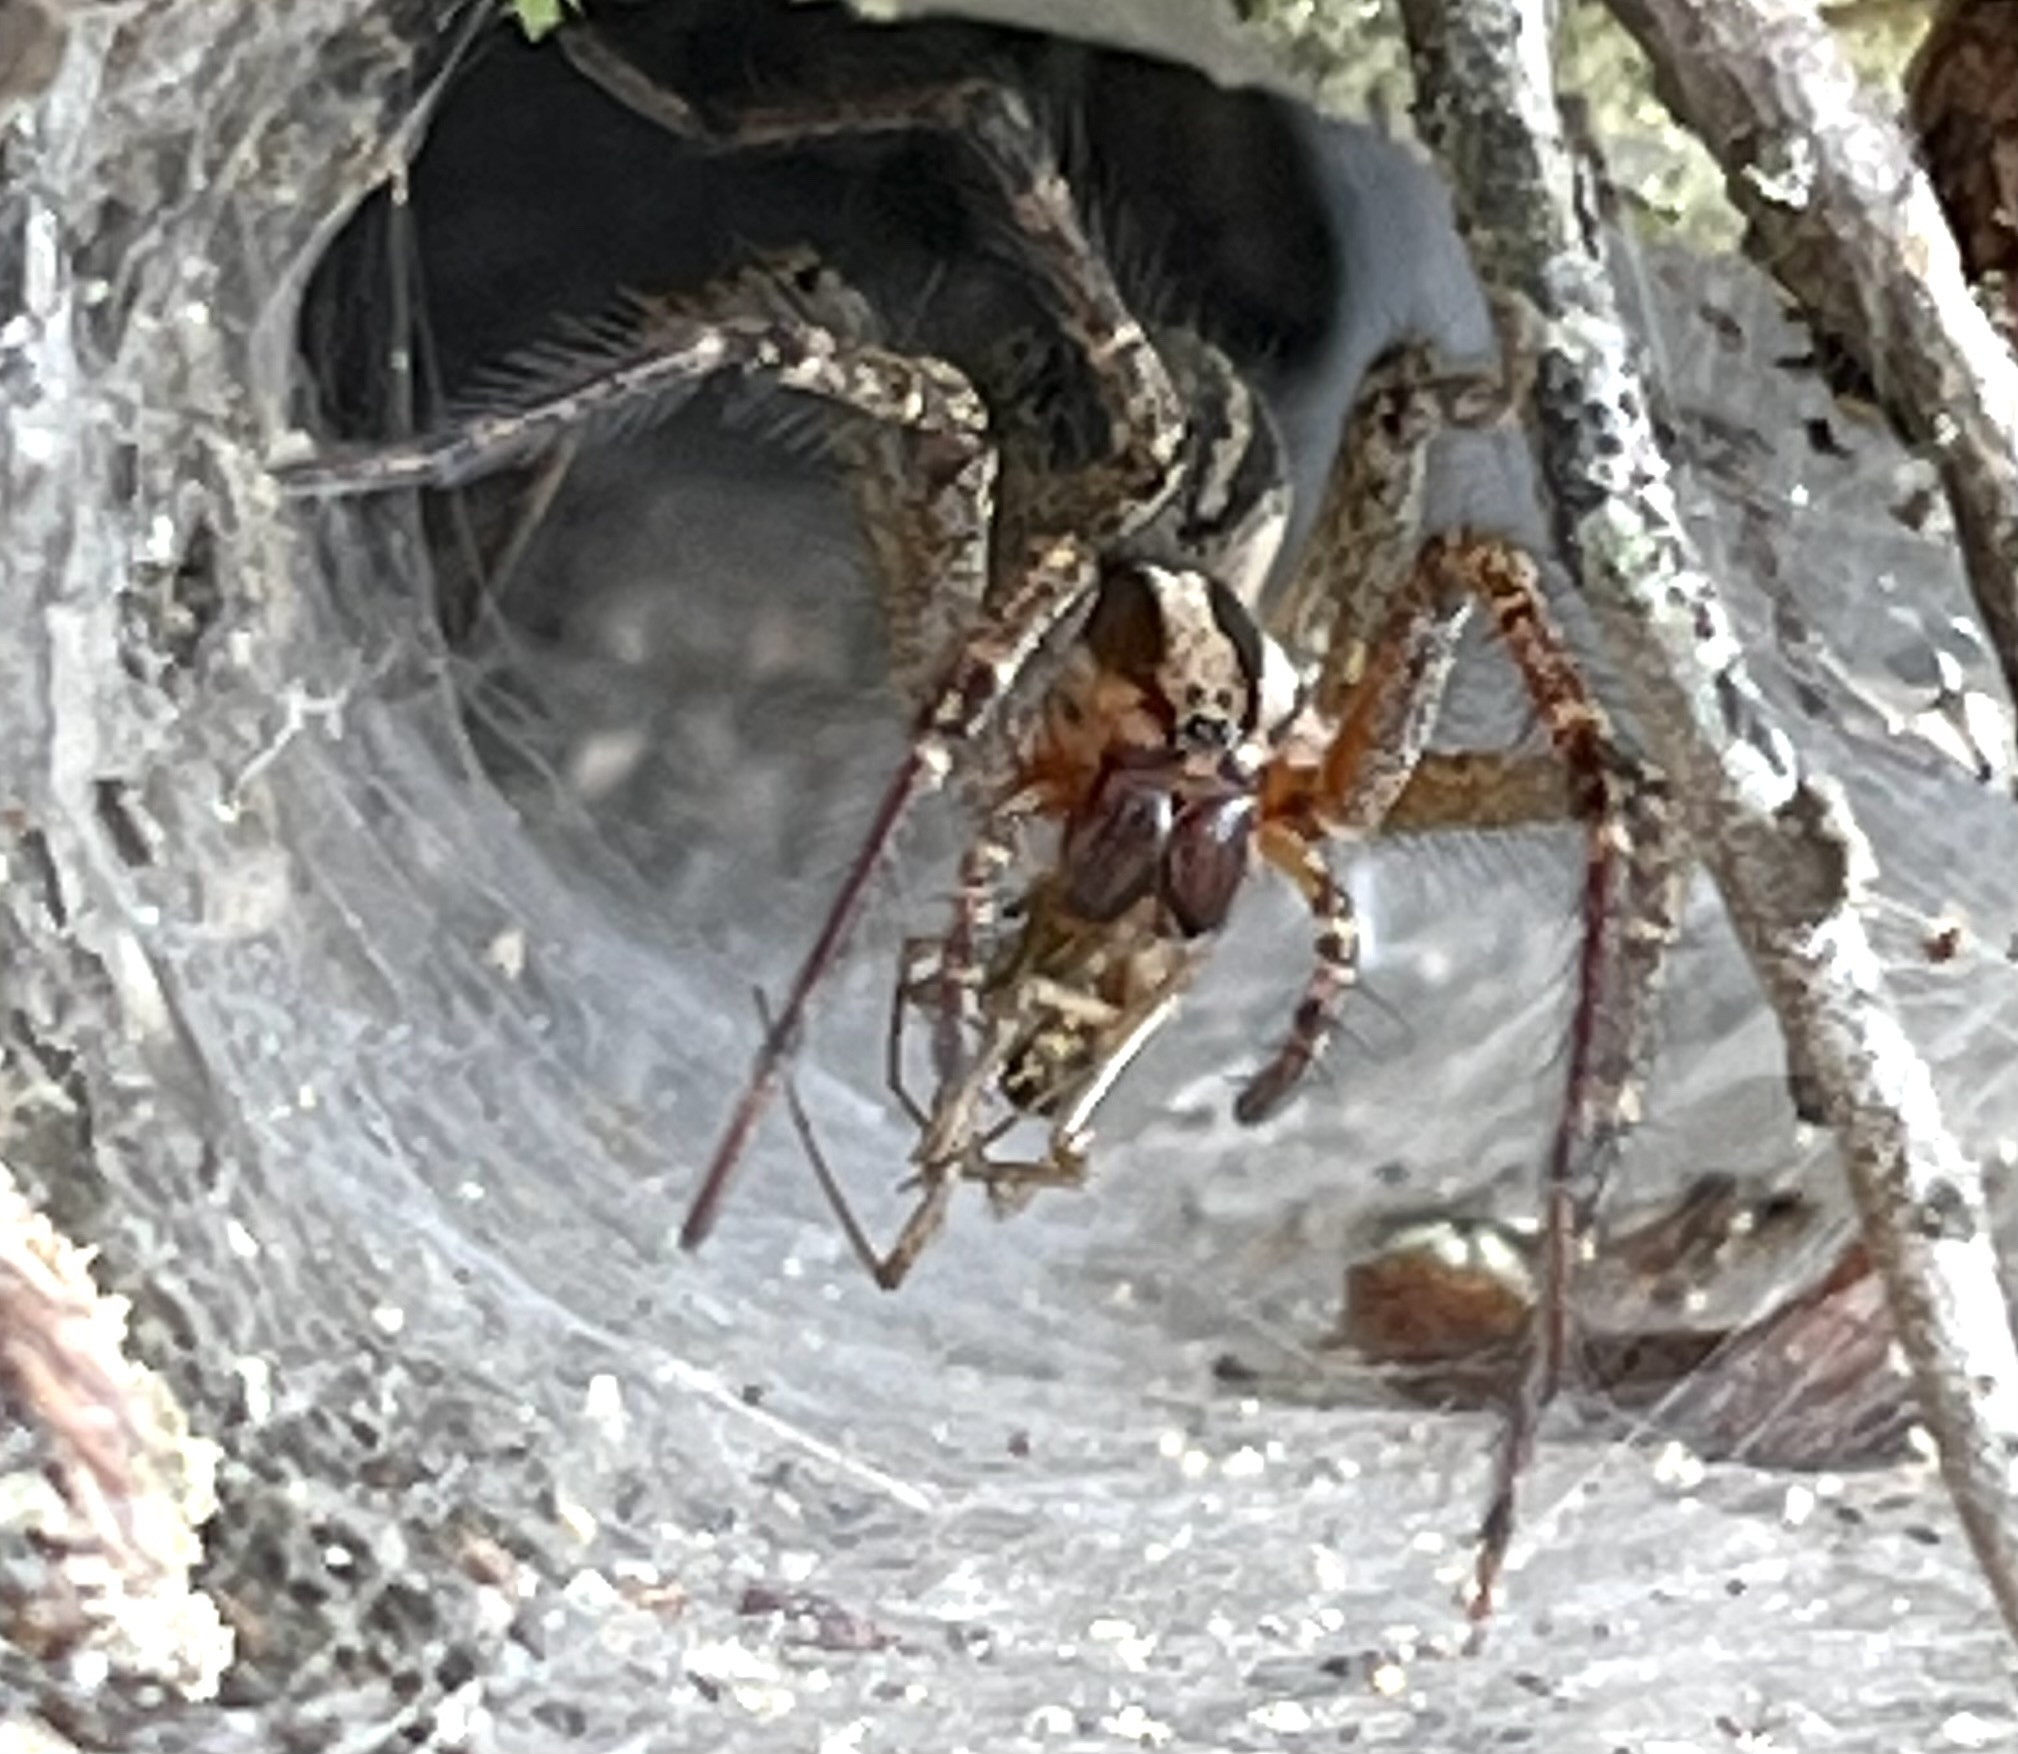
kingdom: Animalia
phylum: Arthropoda
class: Arachnida
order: Araneae
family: Agelenidae
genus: Agelenopsis
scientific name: Agelenopsis
